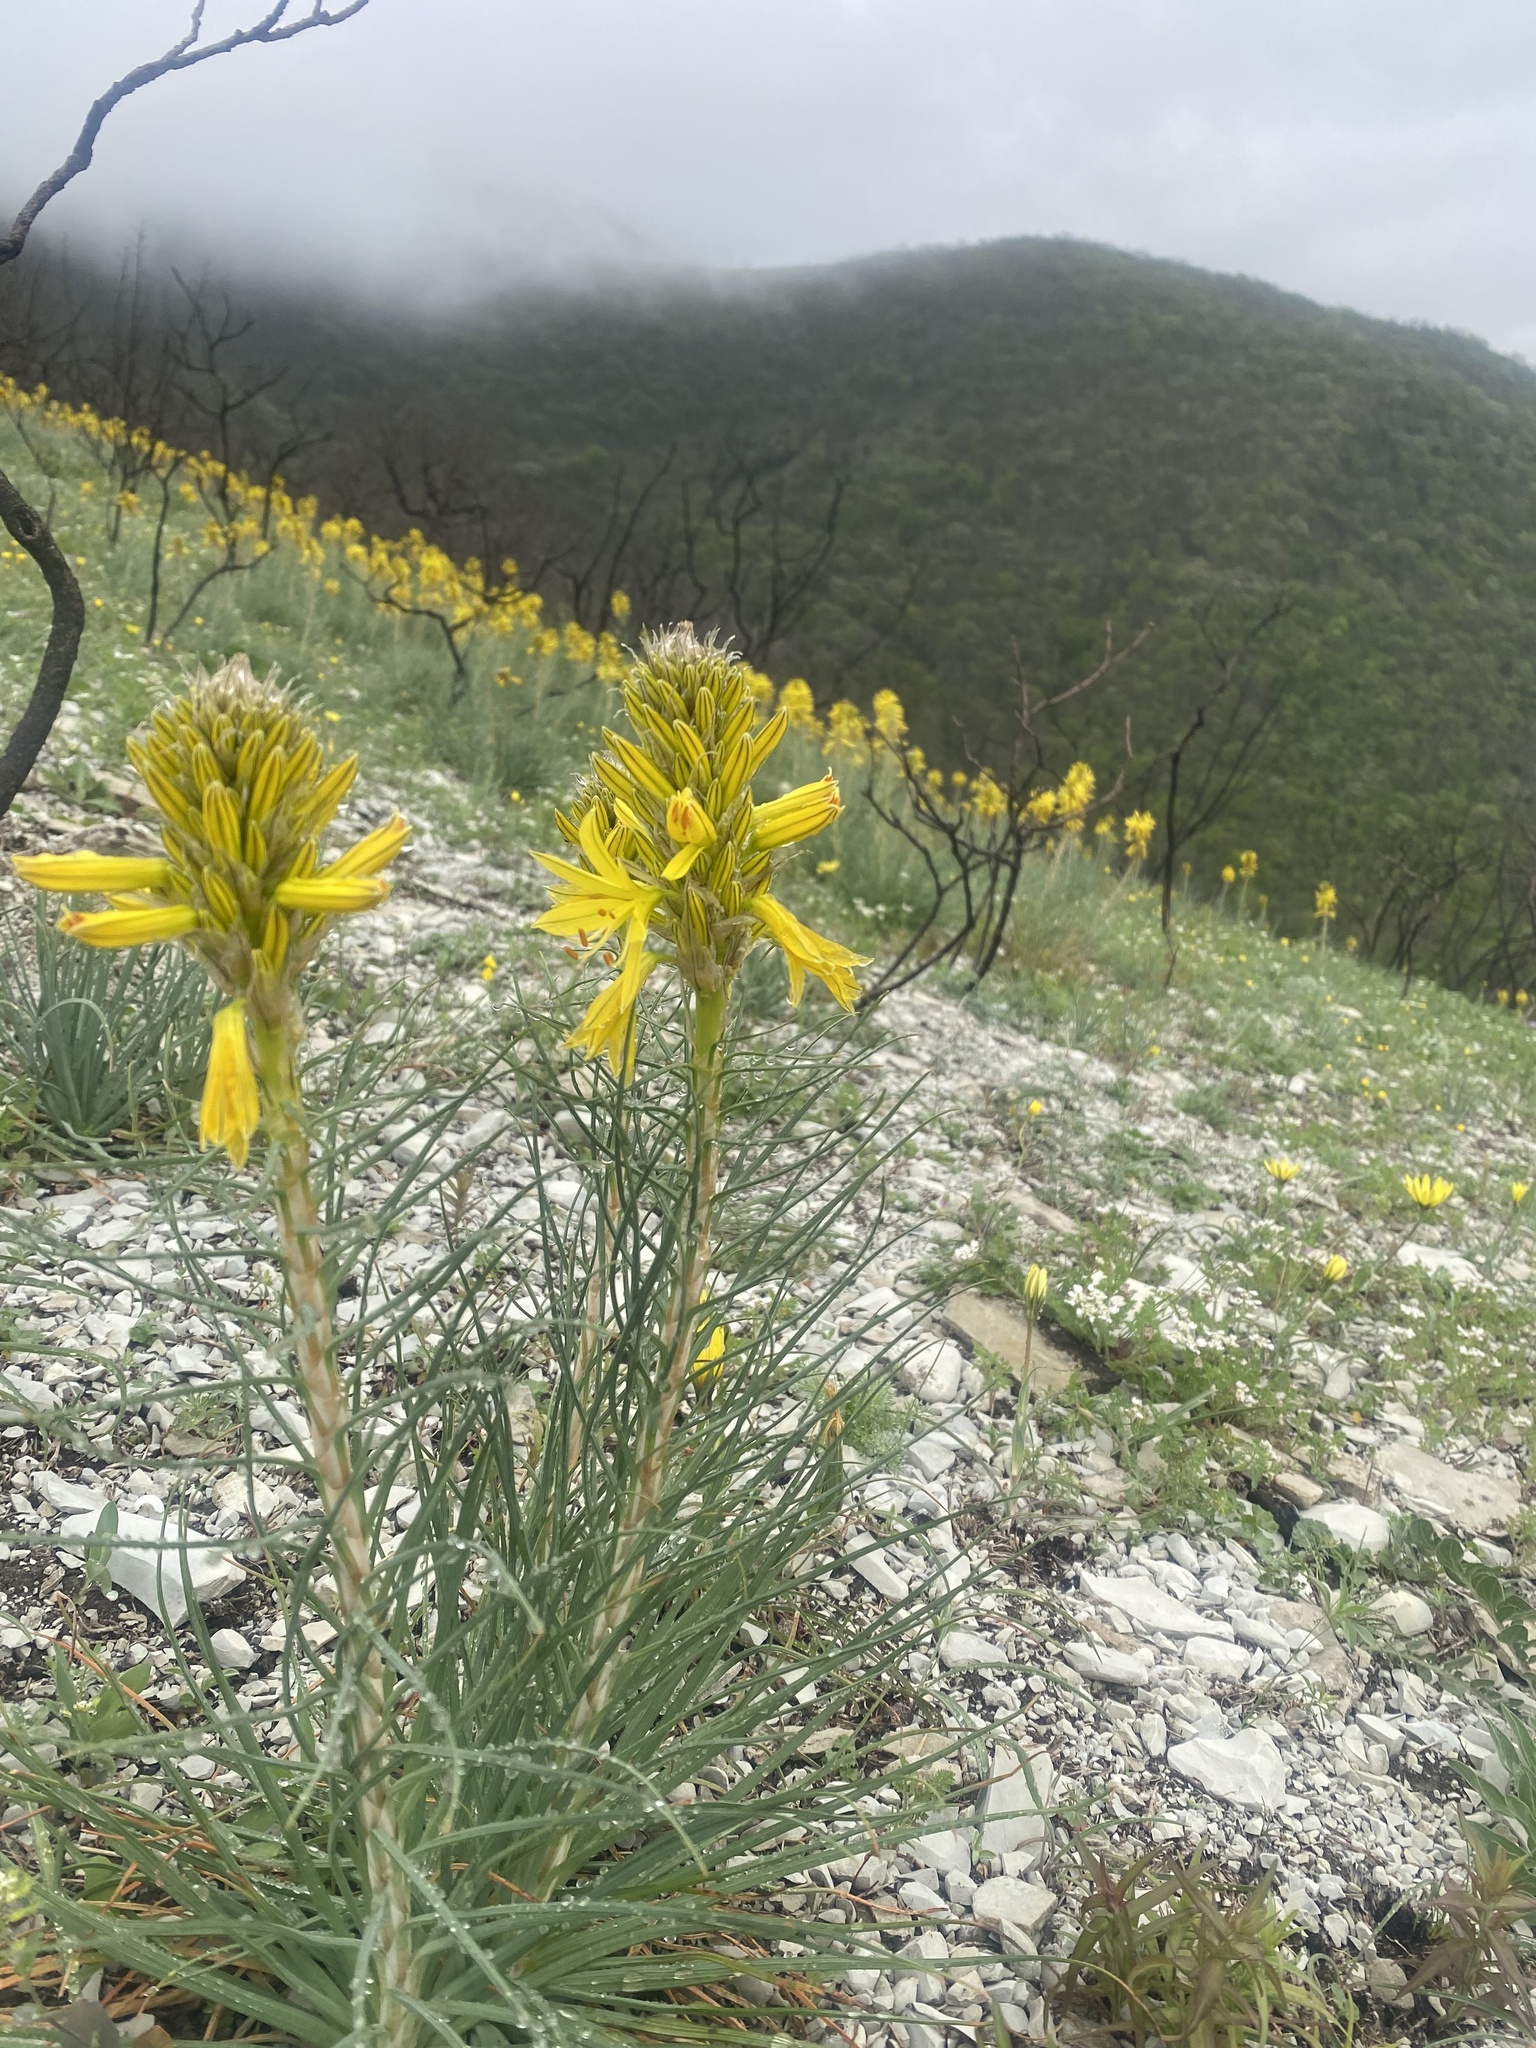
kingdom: Plantae
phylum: Tracheophyta
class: Liliopsida
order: Asparagales
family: Asphodelaceae
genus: Asphodeline
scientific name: Asphodeline lutea
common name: Yellow asphodel
